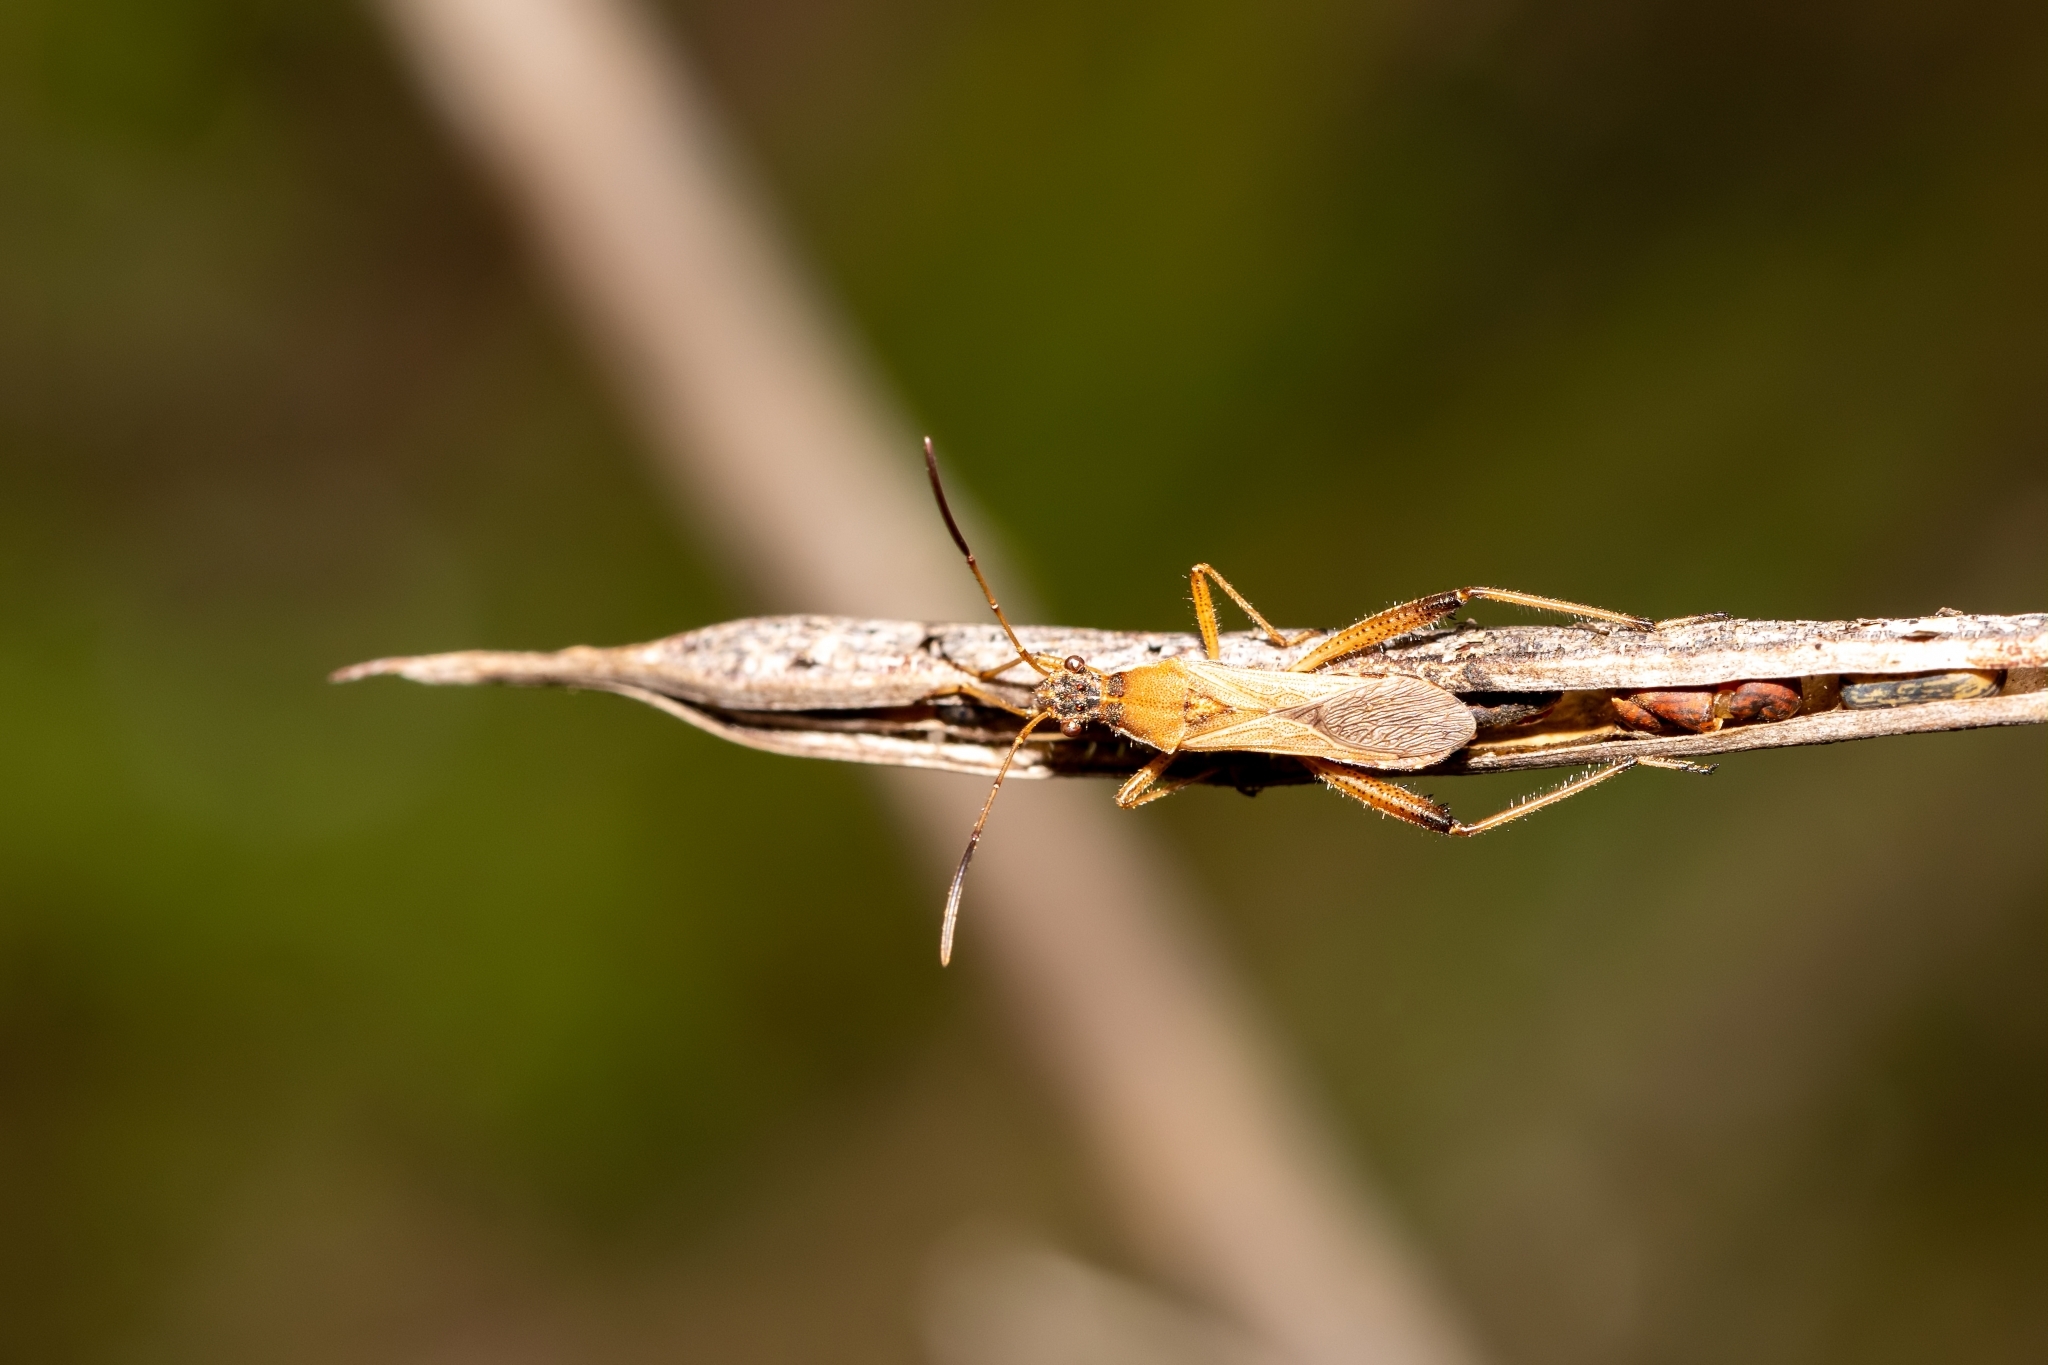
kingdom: Animalia
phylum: Arthropoda
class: Insecta
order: Hemiptera
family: Alydidae
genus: Alydus
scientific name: Alydus pilosulus
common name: Broad-headed bug
